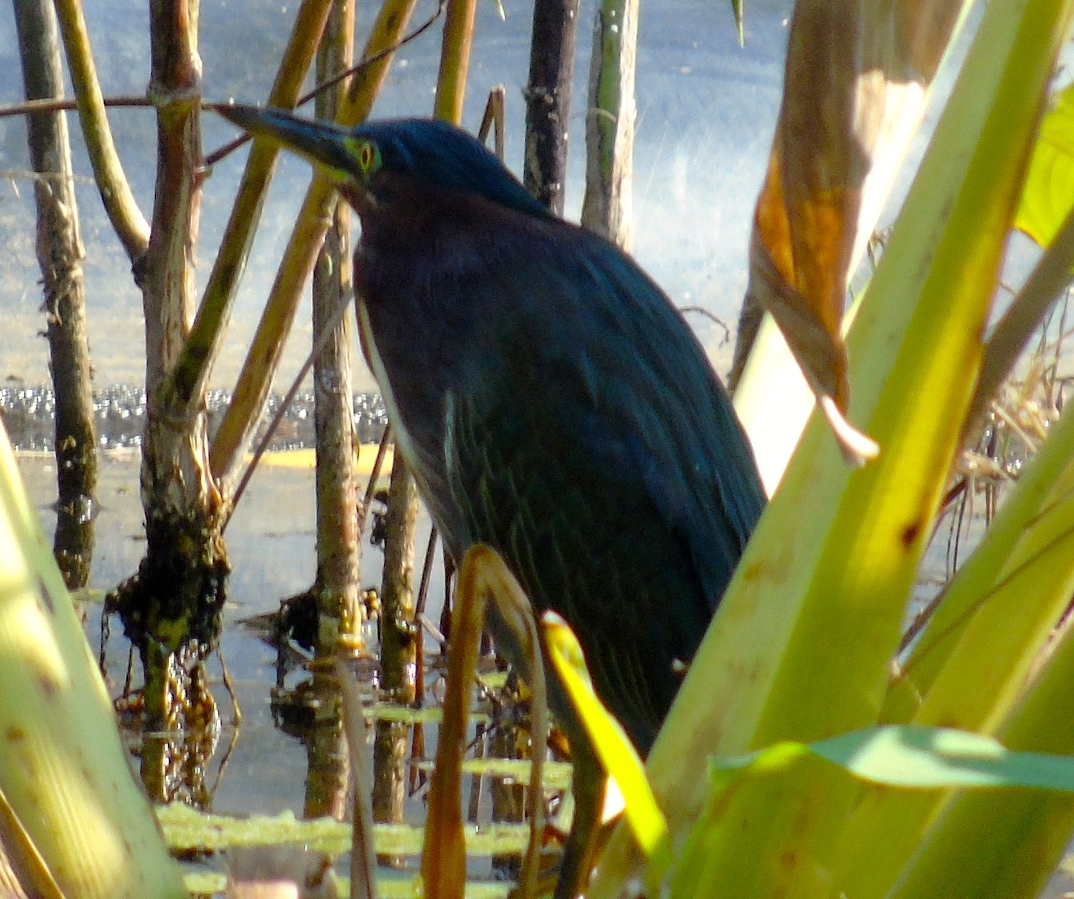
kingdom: Animalia
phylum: Chordata
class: Aves
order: Pelecaniformes
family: Ardeidae
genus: Butorides
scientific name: Butorides virescens
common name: Green heron
